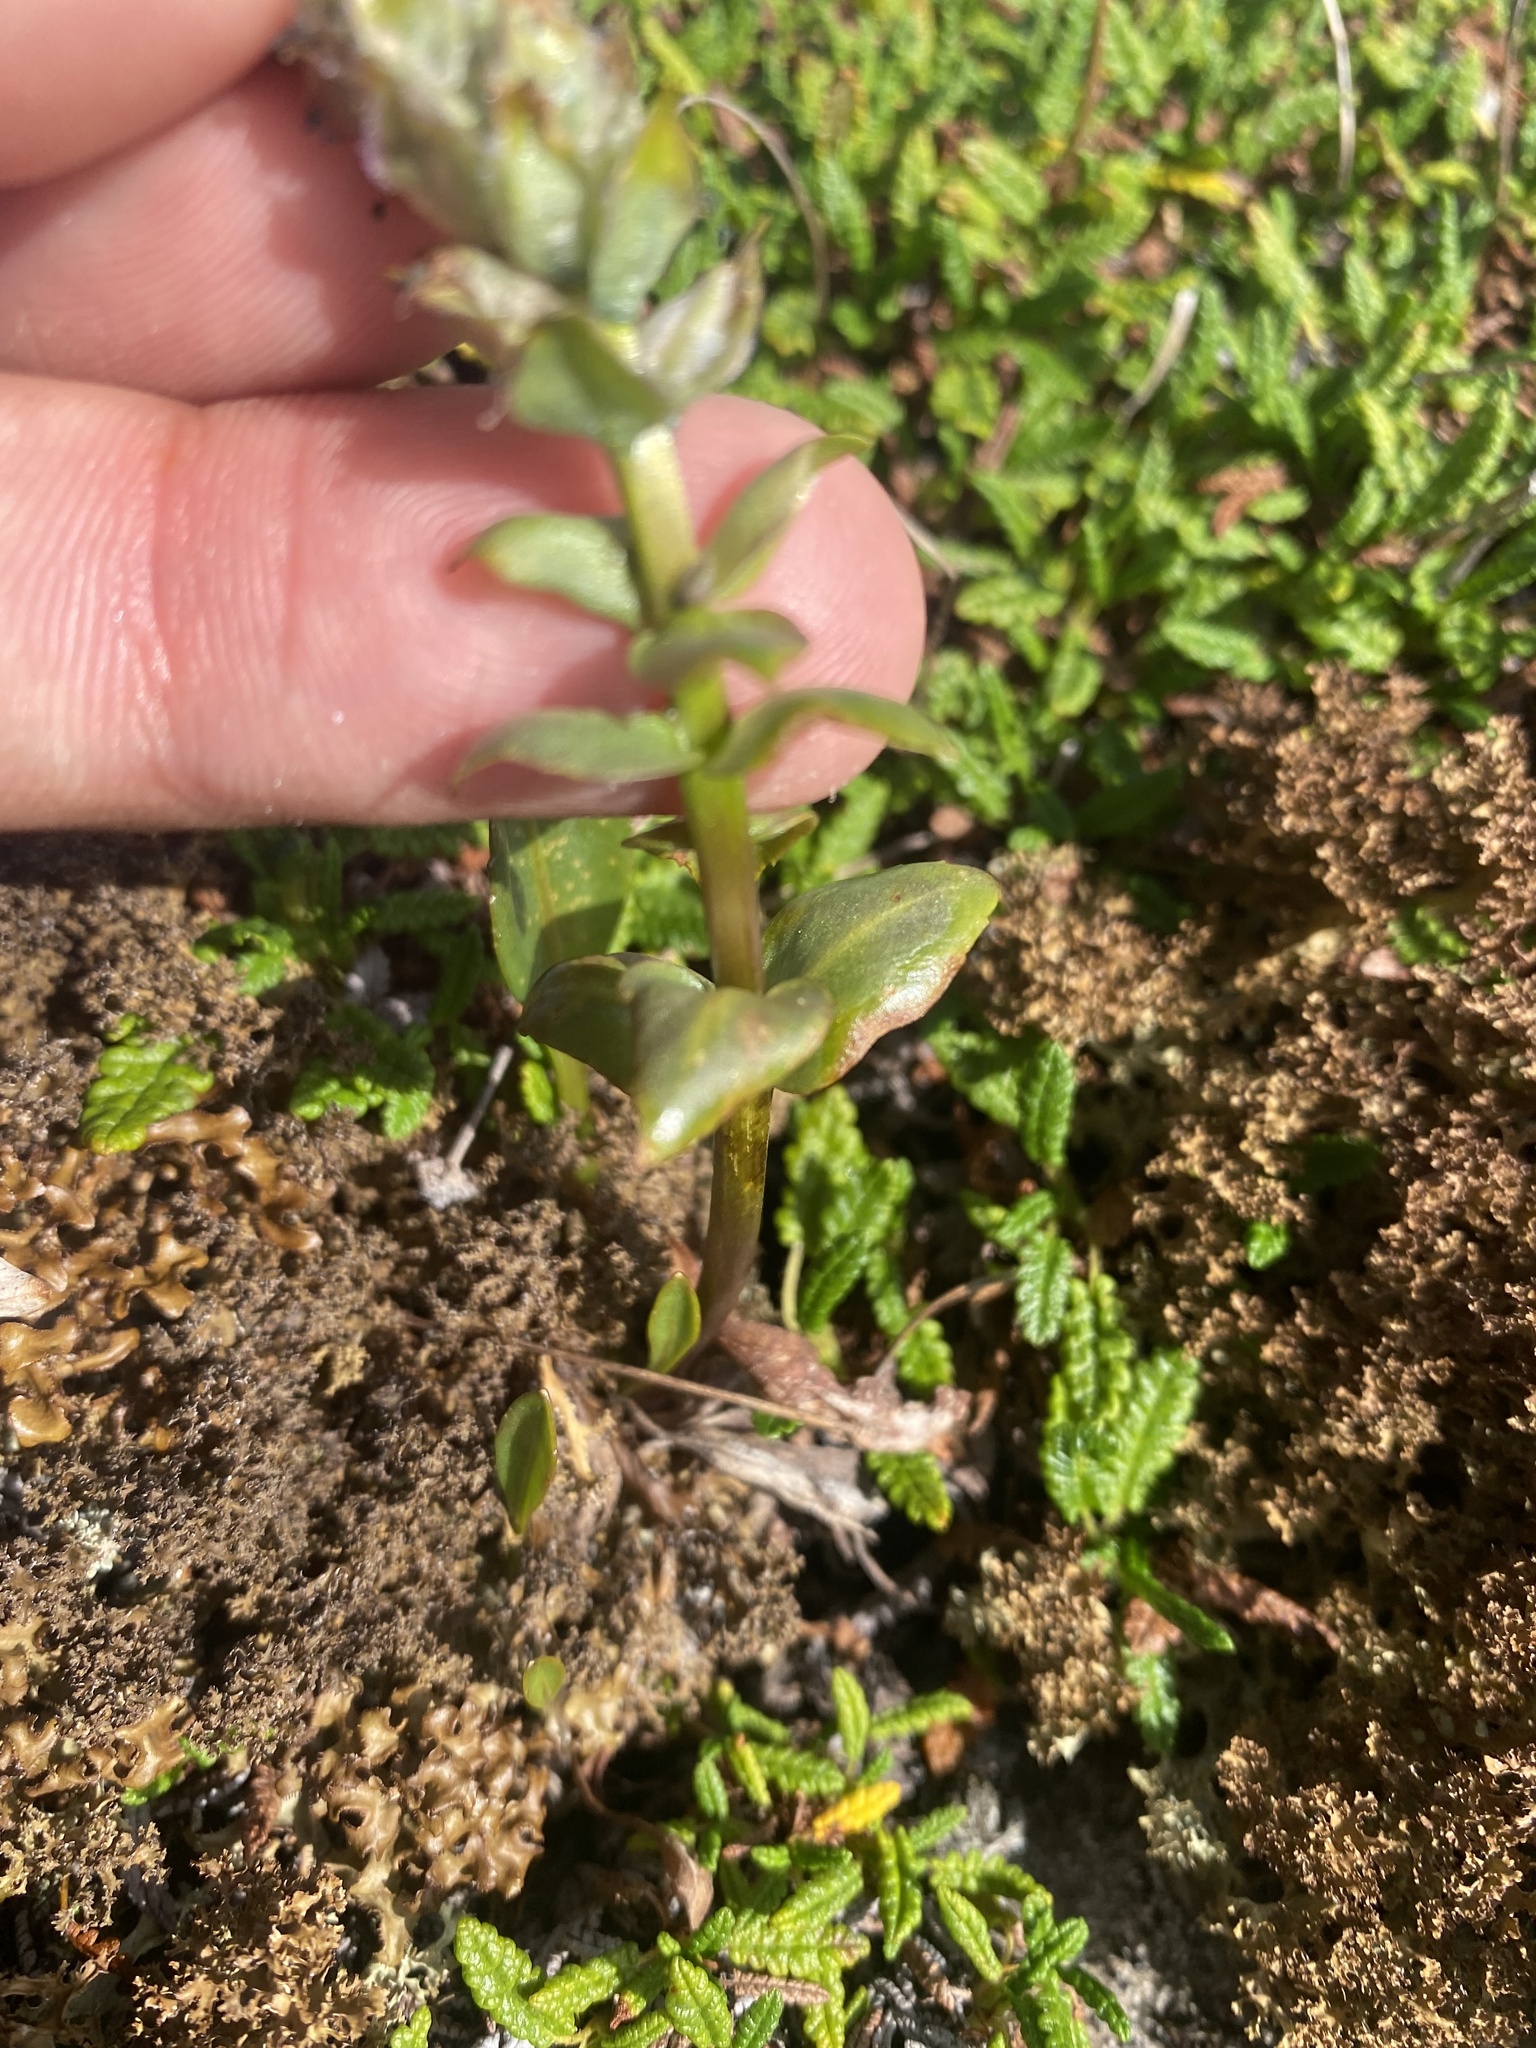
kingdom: Plantae
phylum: Tracheophyta
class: Magnoliopsida
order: Lamiales
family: Plantaginaceae
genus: Lagotis
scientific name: Lagotis glauca
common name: Glaucous weaselsnout
